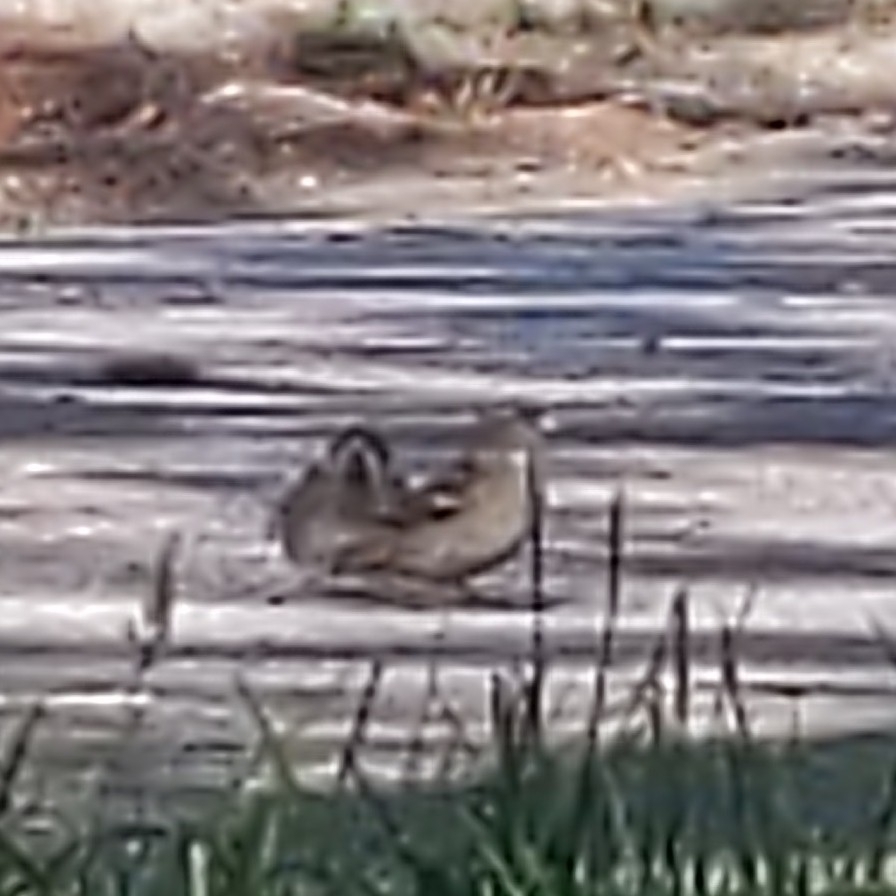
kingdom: Animalia
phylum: Chordata
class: Aves
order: Passeriformes
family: Passeridae
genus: Passer
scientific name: Passer domesticus
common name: House sparrow
